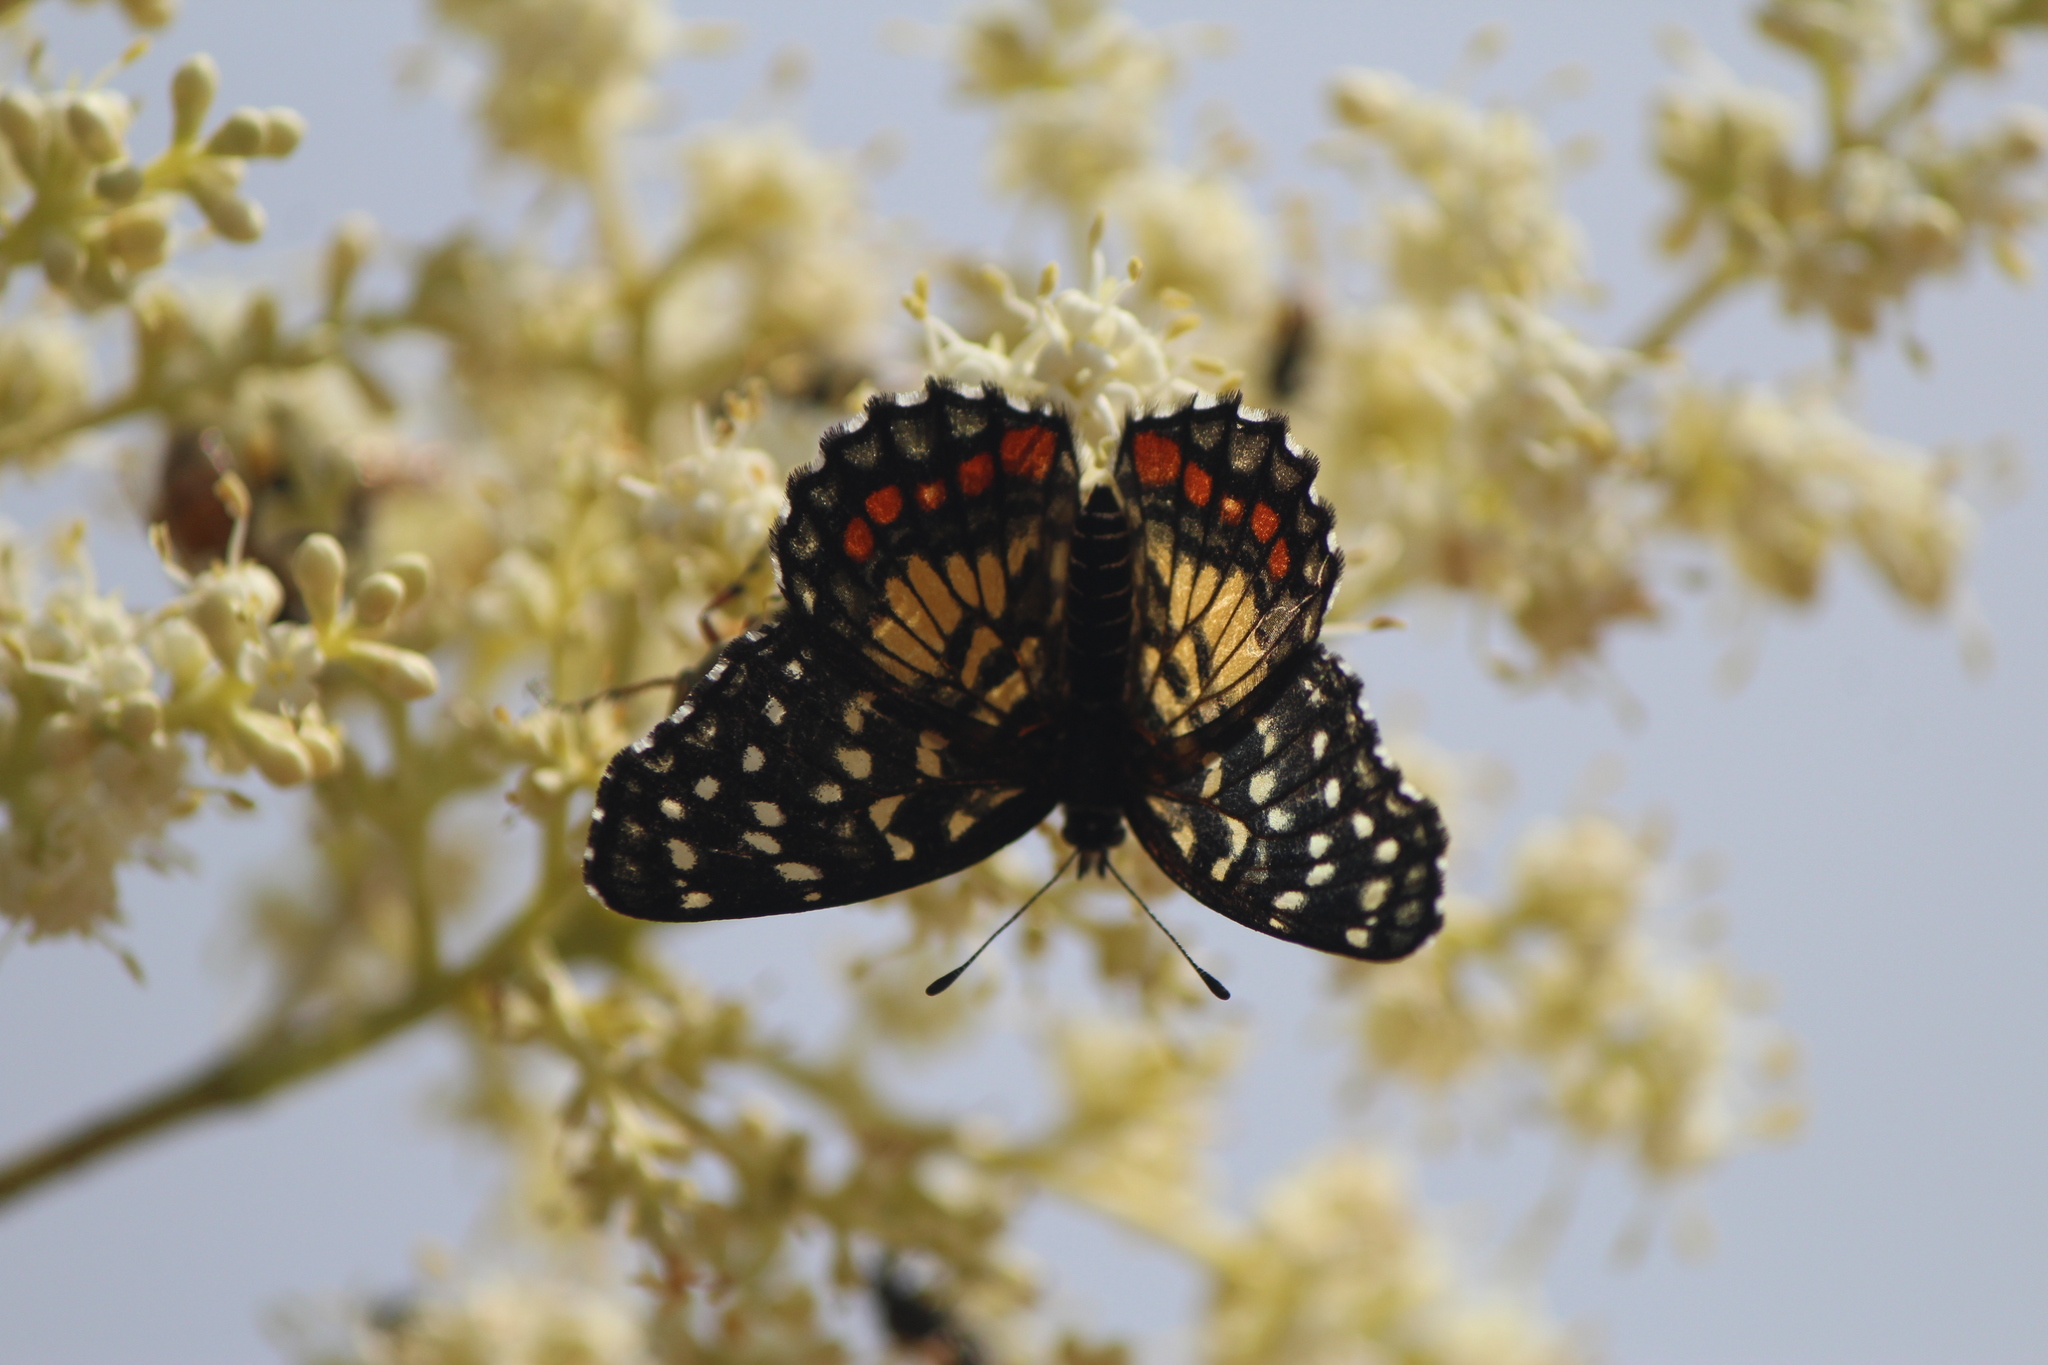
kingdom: Animalia
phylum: Arthropoda
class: Insecta
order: Lepidoptera
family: Nymphalidae
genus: Chlosyne
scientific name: Chlosyne marina
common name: Red-spotted patch
